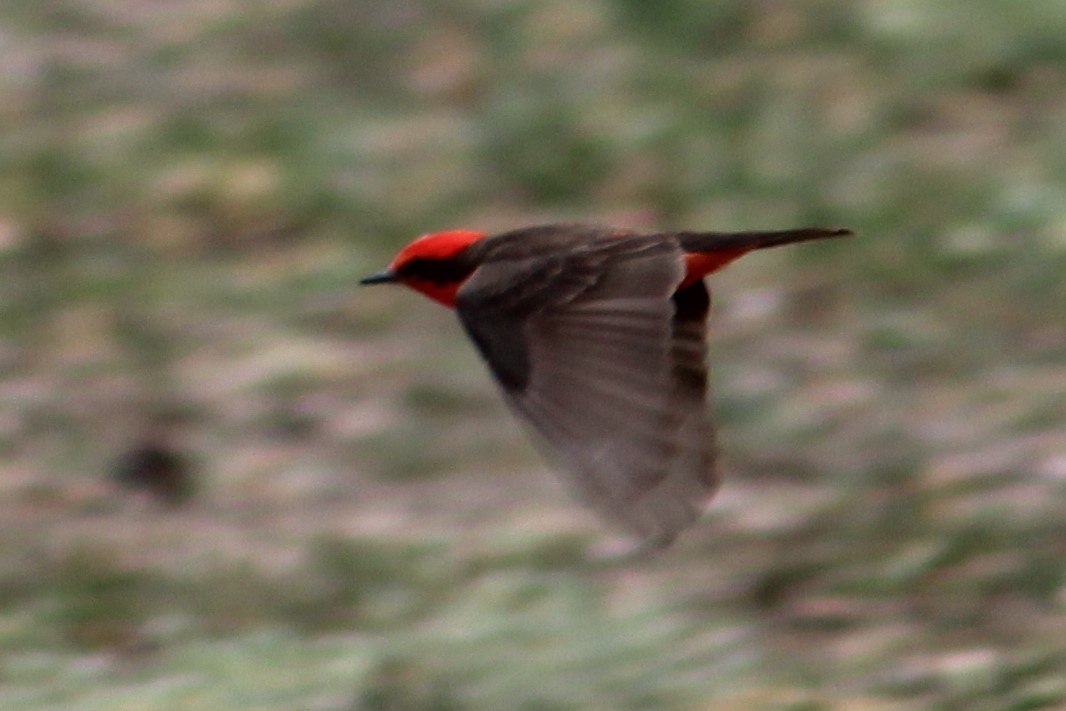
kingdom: Animalia
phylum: Chordata
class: Aves
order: Passeriformes
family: Tyrannidae
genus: Pyrocephalus
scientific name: Pyrocephalus rubinus
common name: Vermilion flycatcher
